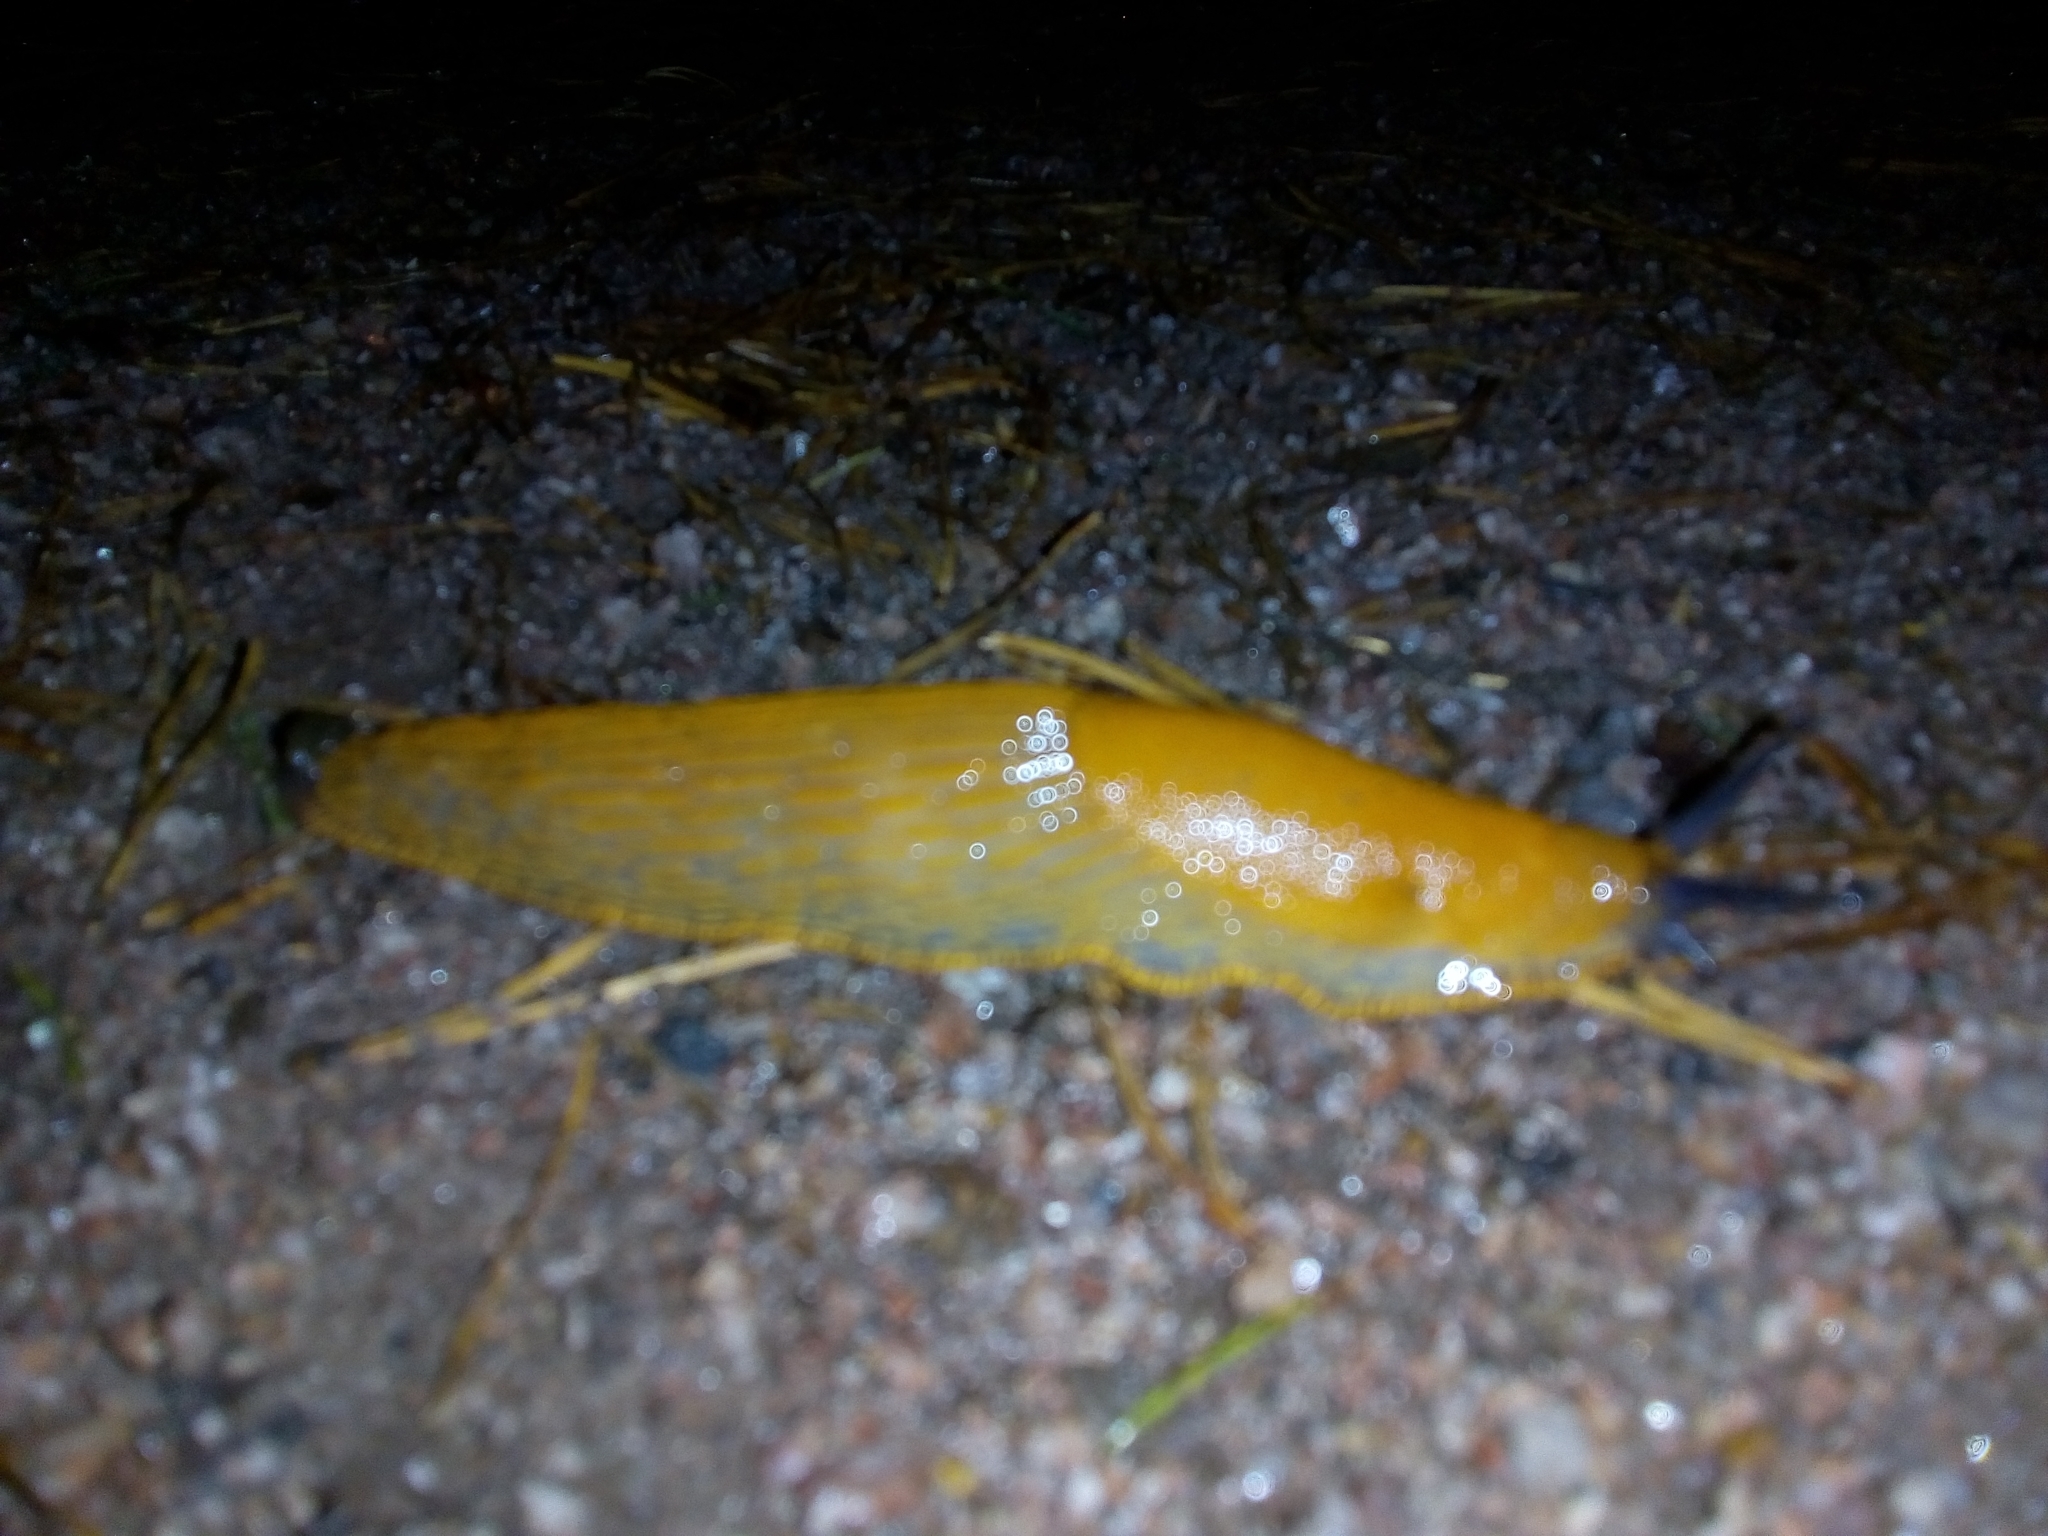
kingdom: Animalia
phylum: Mollusca
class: Gastropoda
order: Stylommatophora
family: Arionidae
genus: Arion
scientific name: Arion vulgaris
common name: Lusitanian slug
